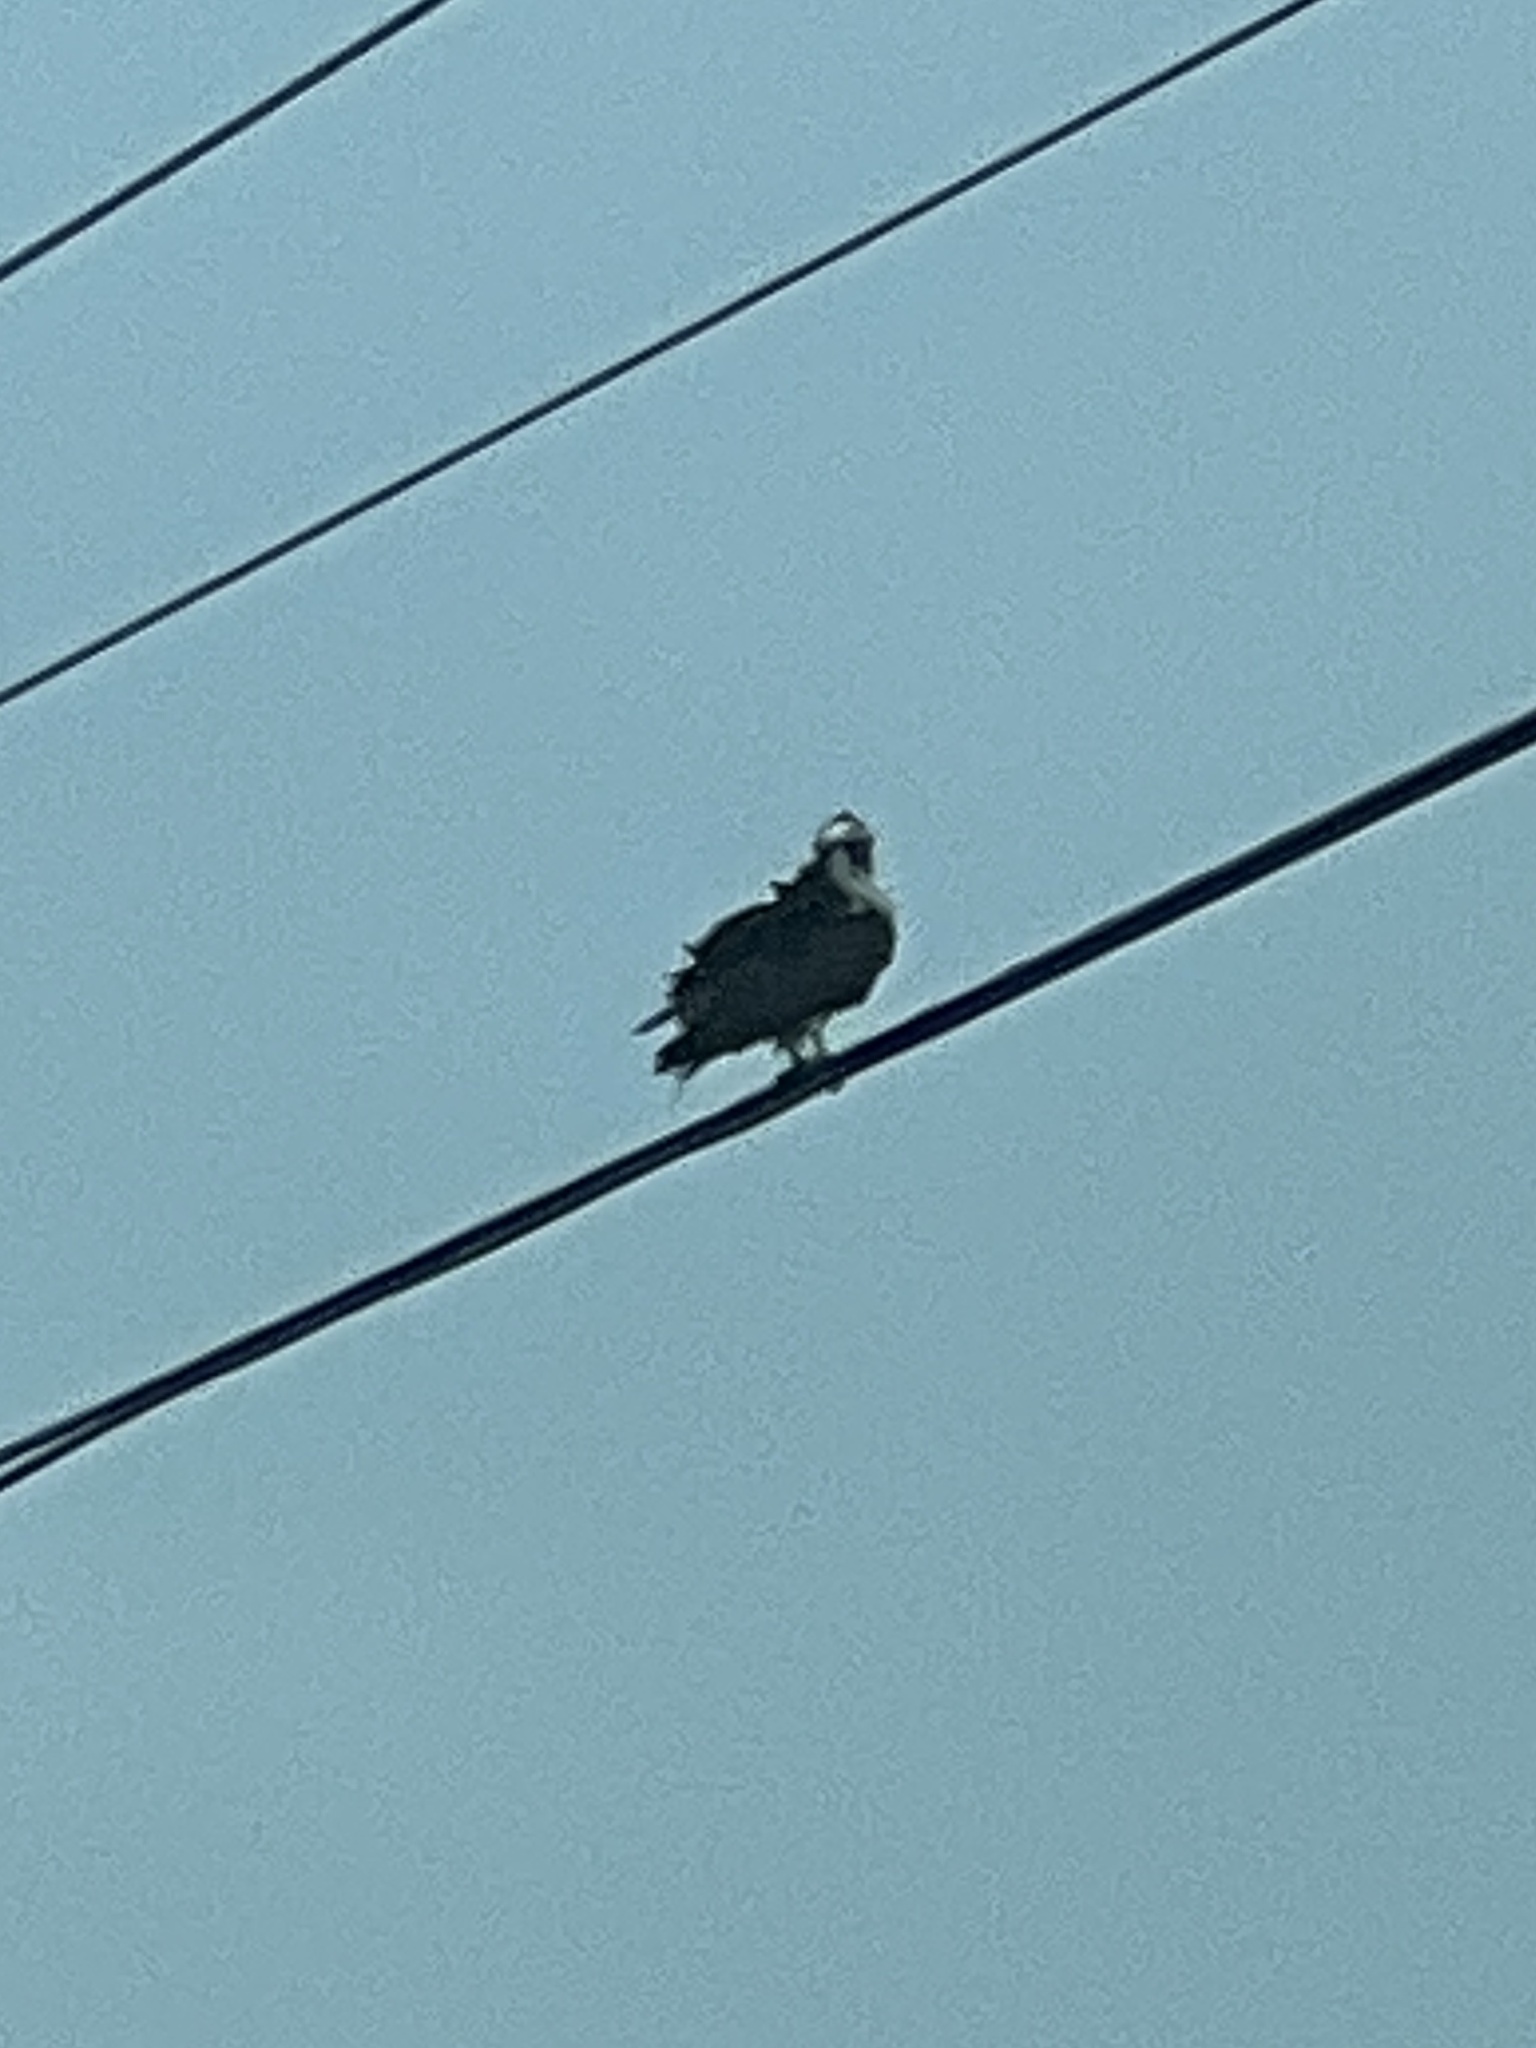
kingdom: Animalia
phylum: Chordata
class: Aves
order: Accipitriformes
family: Pandionidae
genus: Pandion
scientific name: Pandion haliaetus
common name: Osprey
